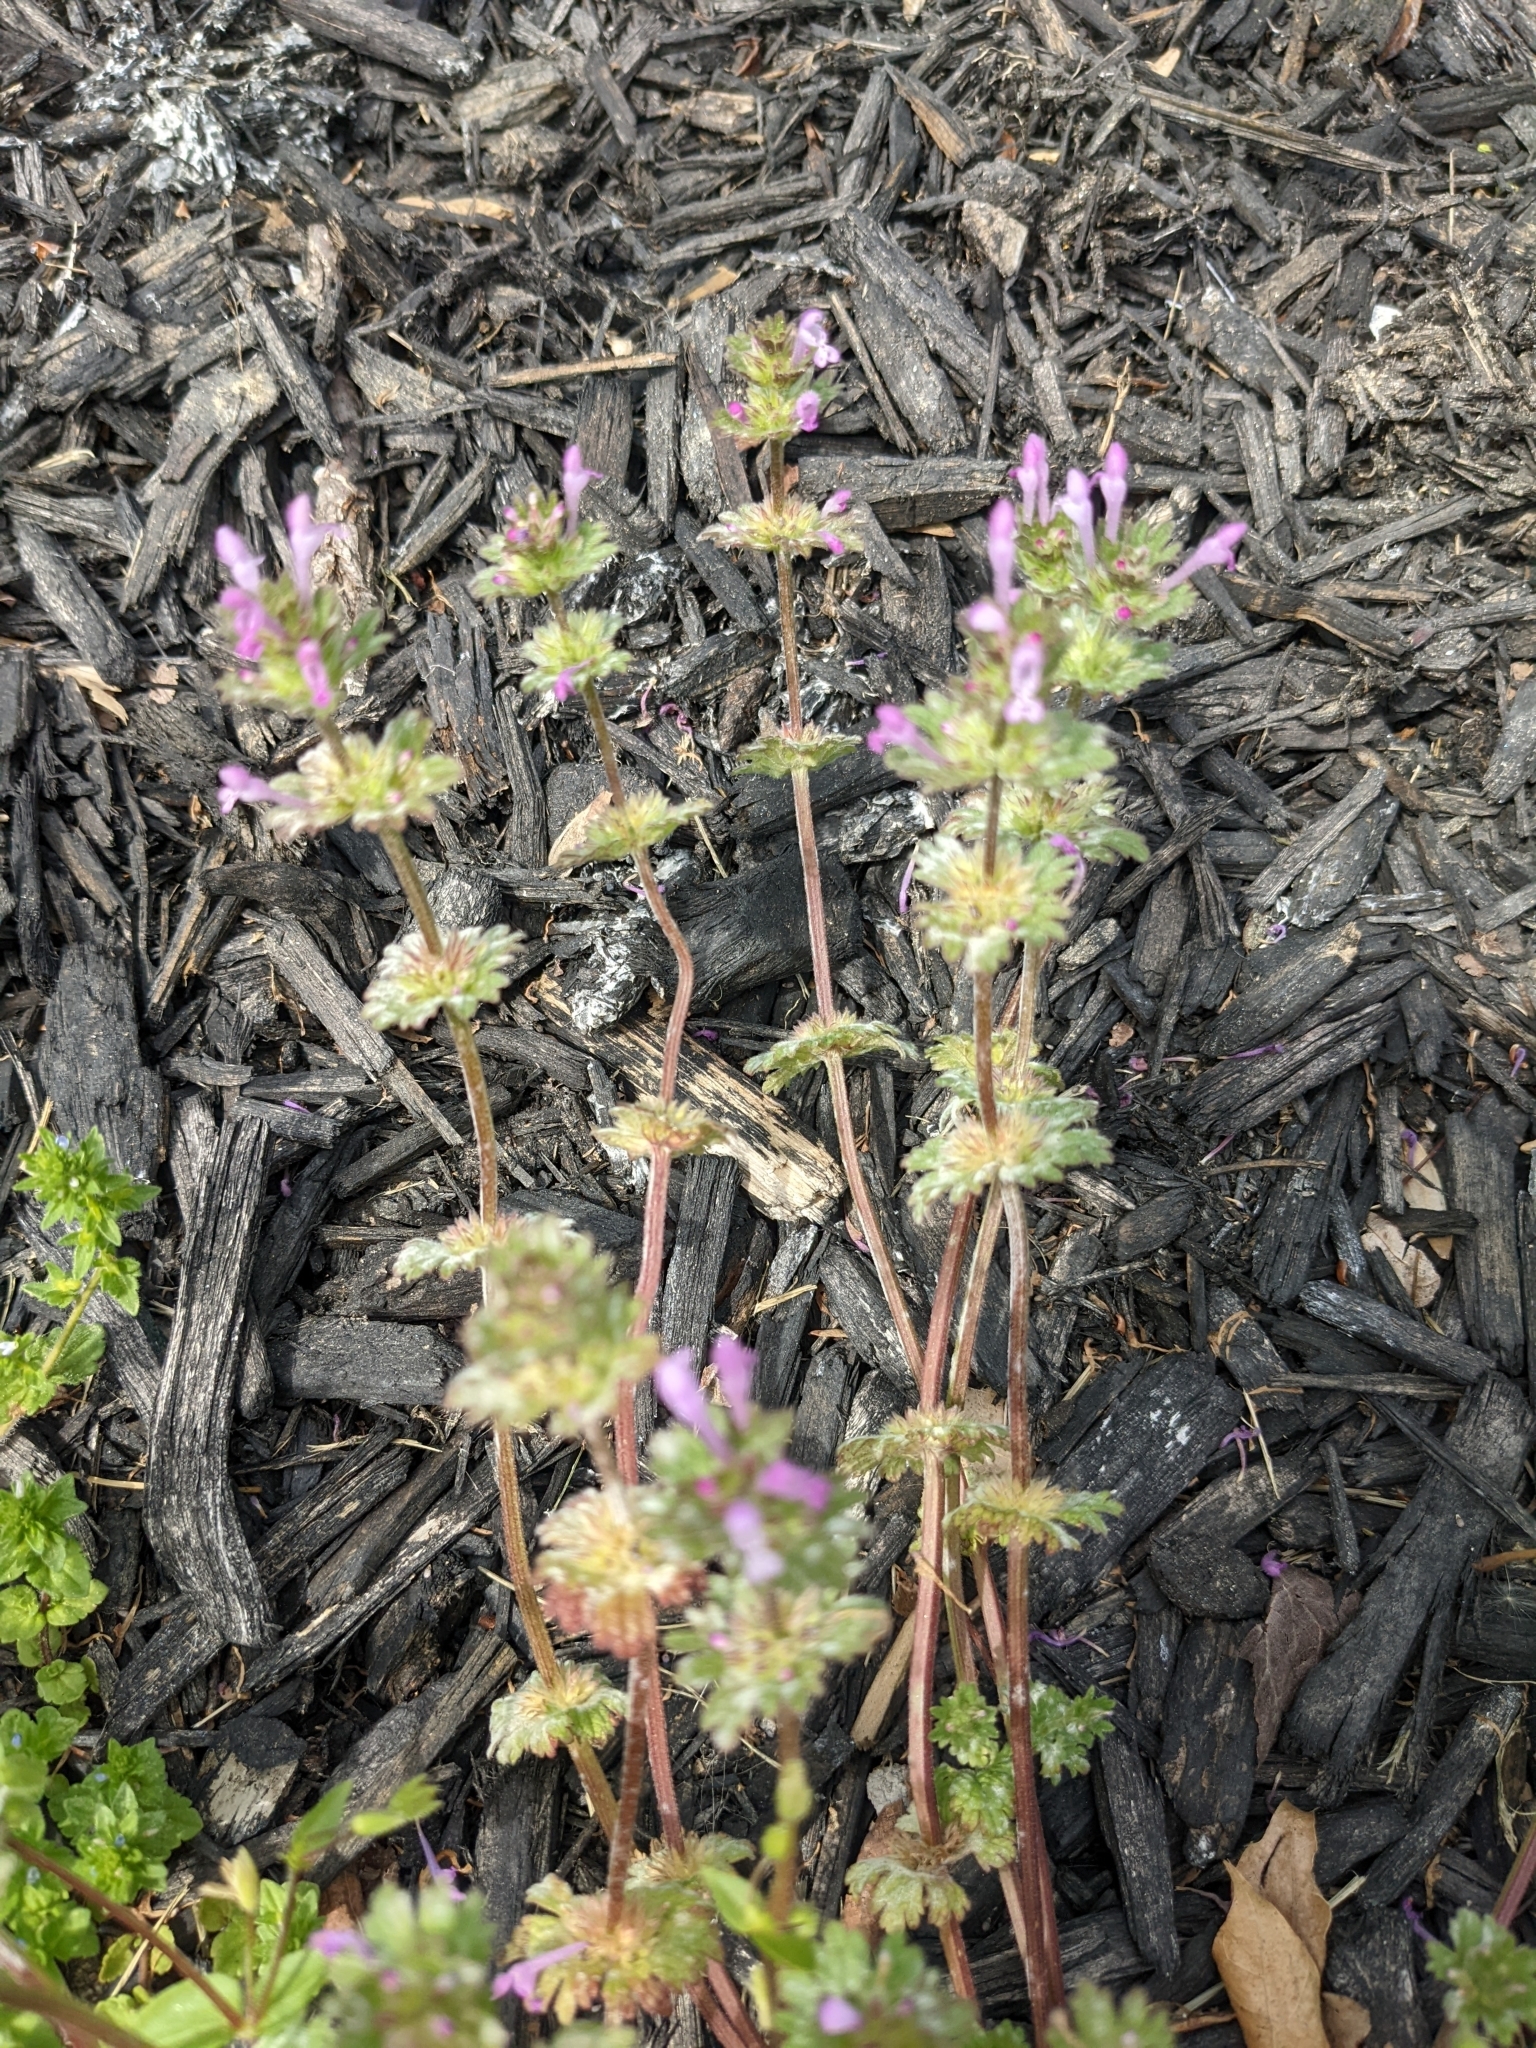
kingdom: Plantae
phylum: Tracheophyta
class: Magnoliopsida
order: Lamiales
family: Lamiaceae
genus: Lamium
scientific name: Lamium amplexicaule
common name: Henbit dead-nettle
